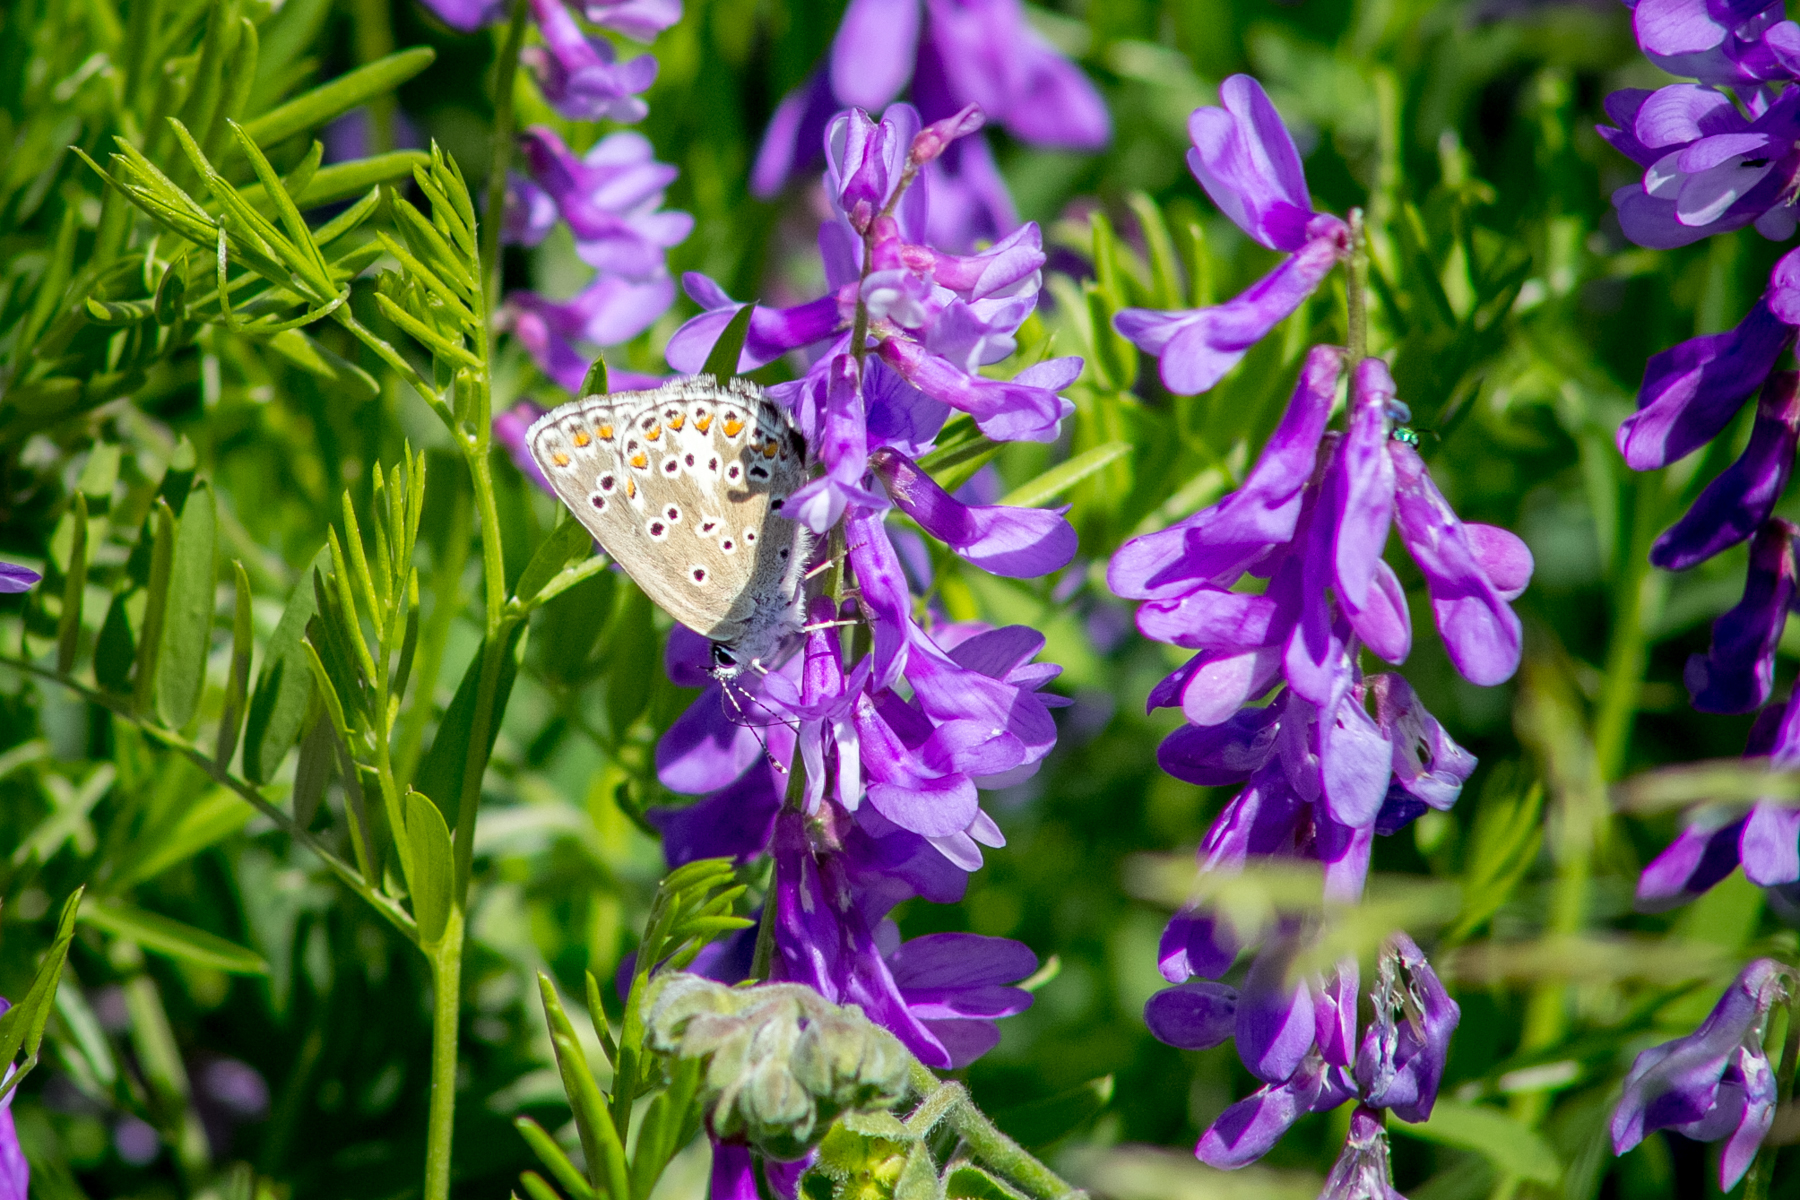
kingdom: Animalia
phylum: Arthropoda
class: Insecta
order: Lepidoptera
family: Lycaenidae
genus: Aricia
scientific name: Aricia artaxerxes
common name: Northern brown argus
